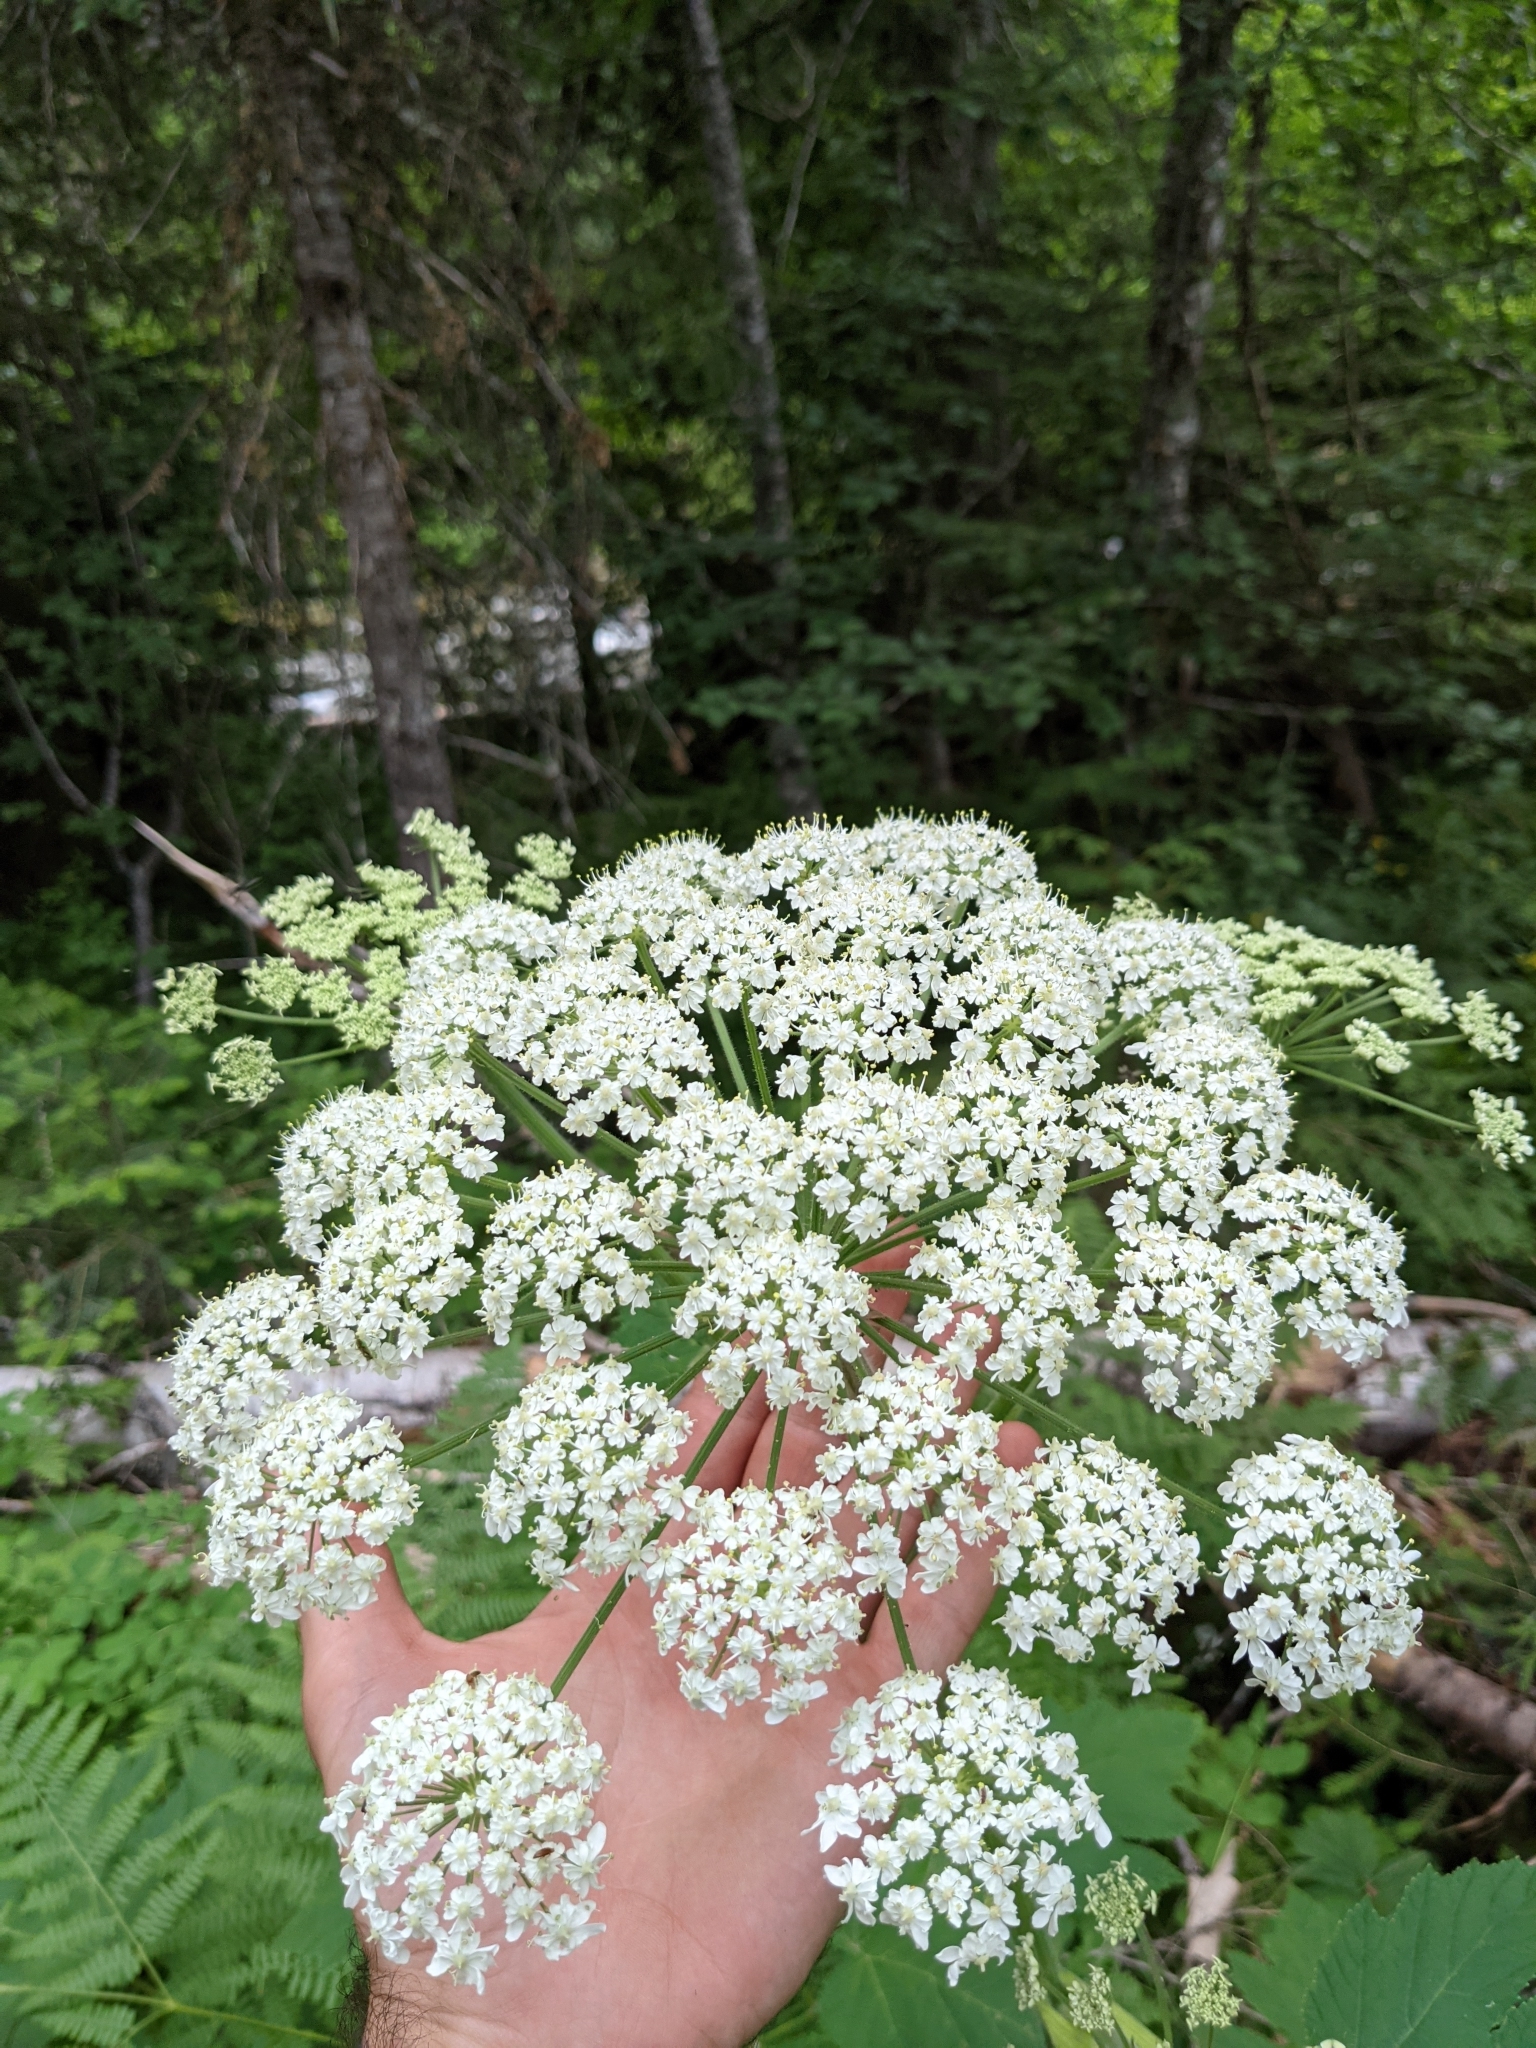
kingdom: Plantae
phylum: Tracheophyta
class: Magnoliopsida
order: Apiales
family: Apiaceae
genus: Heracleum
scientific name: Heracleum maximum
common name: American cow parsnip
